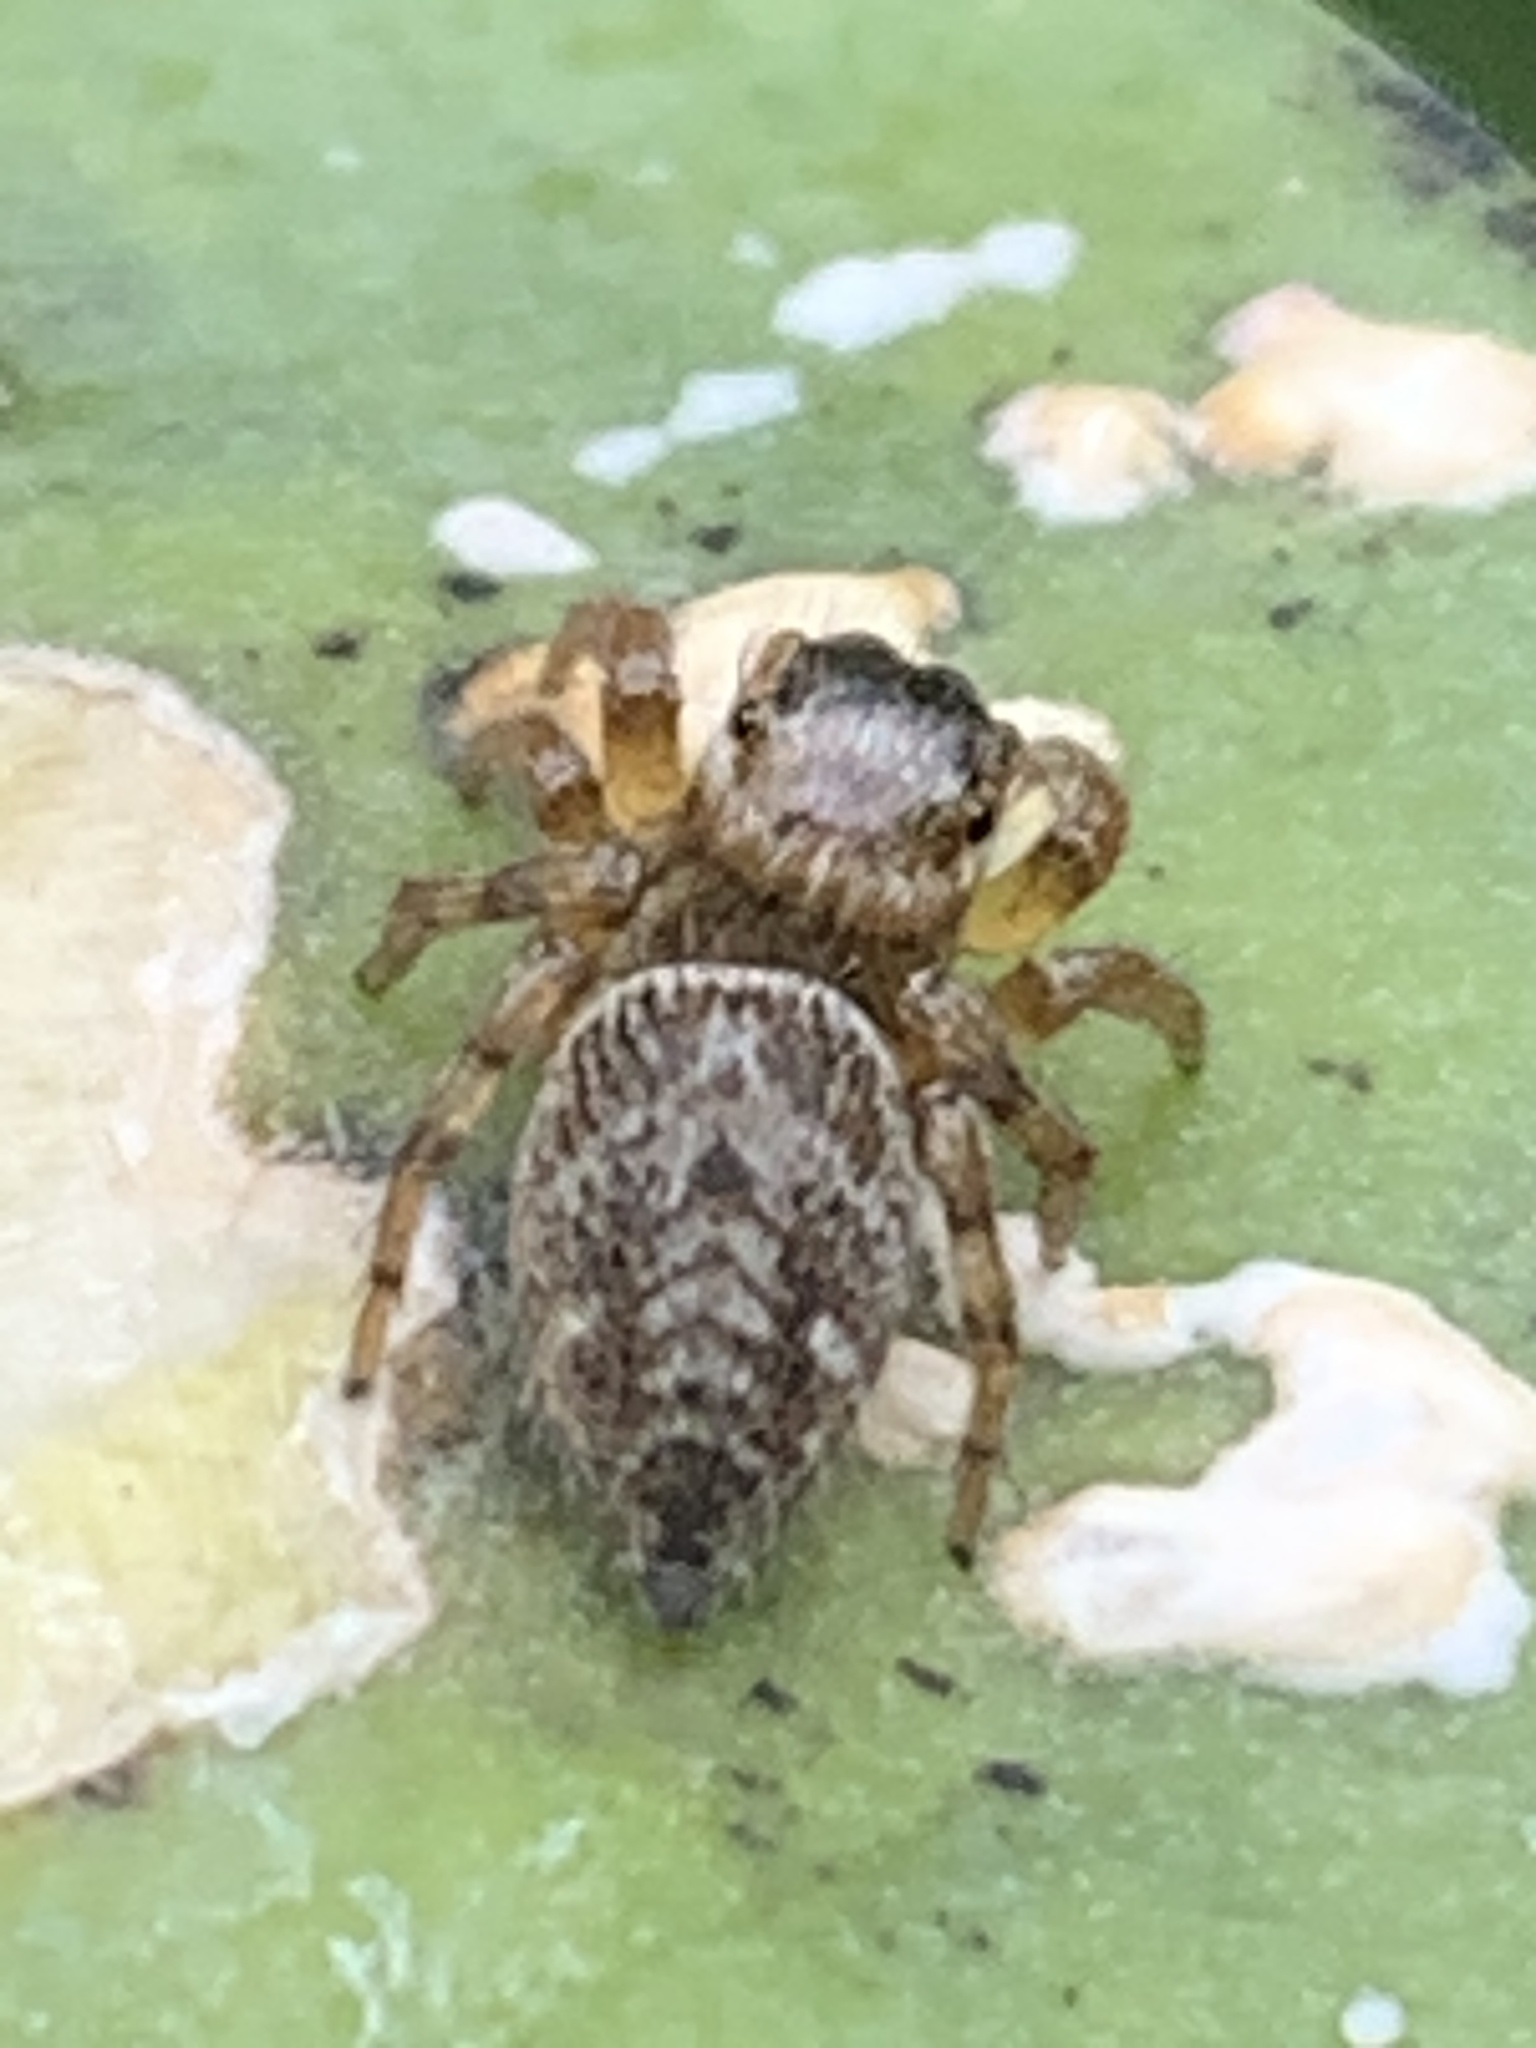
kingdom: Animalia
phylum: Arthropoda
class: Arachnida
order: Araneae
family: Salticidae
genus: Evarcha
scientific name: Evarcha jucunda
